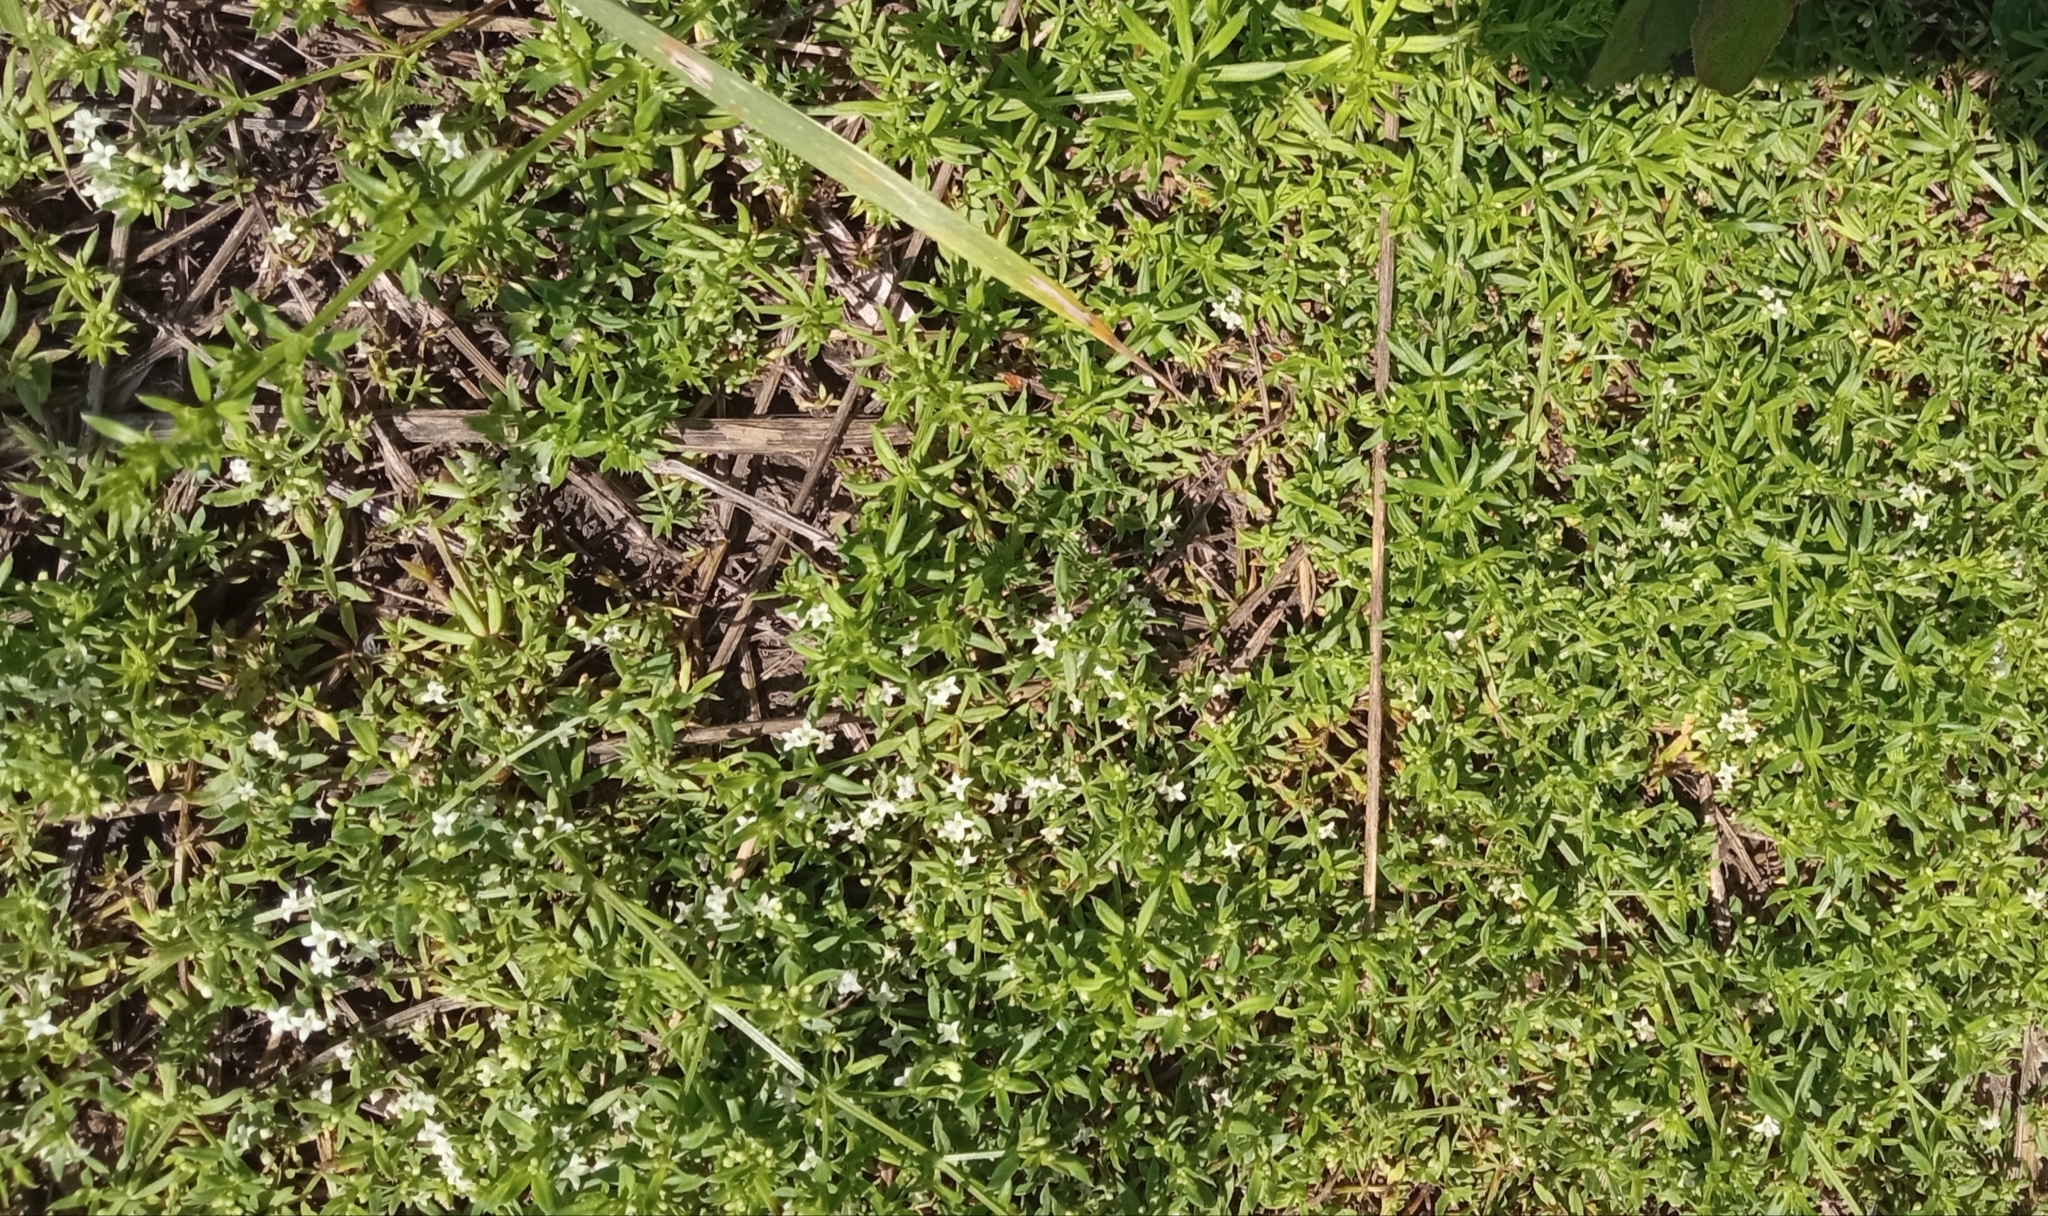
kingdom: Plantae
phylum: Tracheophyta
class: Magnoliopsida
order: Gentianales
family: Rubiaceae
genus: Galium
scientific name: Galium humifusum
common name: Spreading bedstraw
